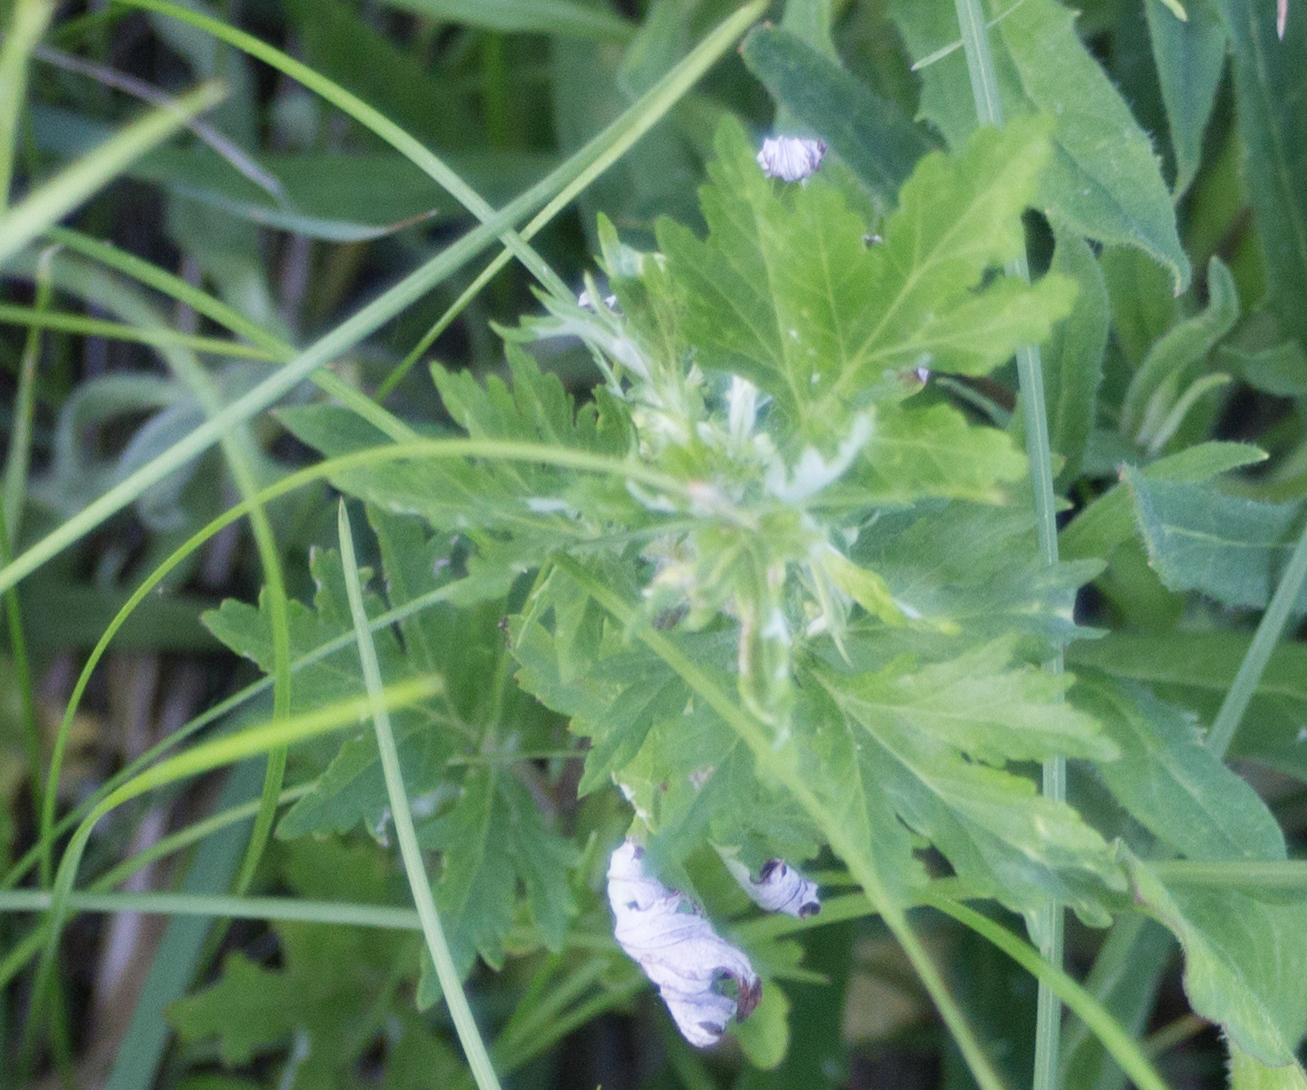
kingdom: Plantae
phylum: Tracheophyta
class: Magnoliopsida
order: Asterales
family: Asteraceae
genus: Artemisia
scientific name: Artemisia vulgaris
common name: Mugwort
